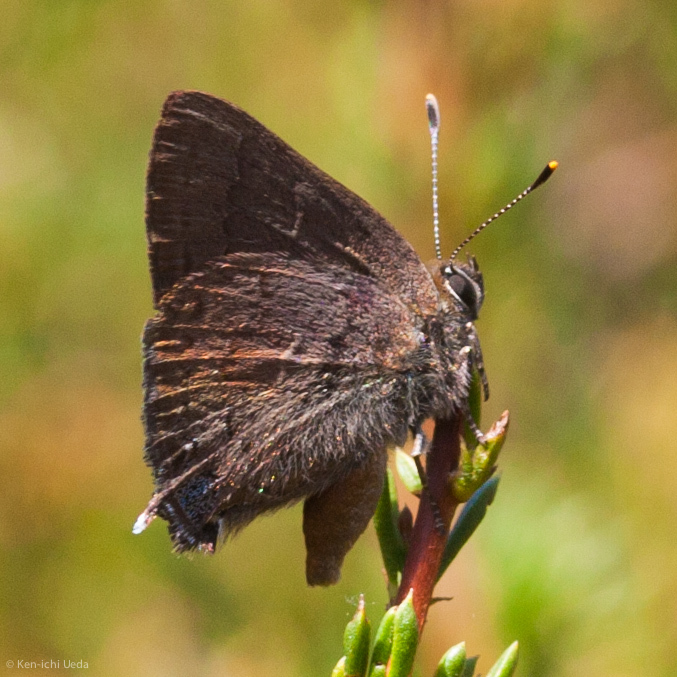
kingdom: Animalia
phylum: Arthropoda
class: Insecta
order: Lepidoptera
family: Lycaenidae
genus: Strymon
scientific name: Strymon saepium
